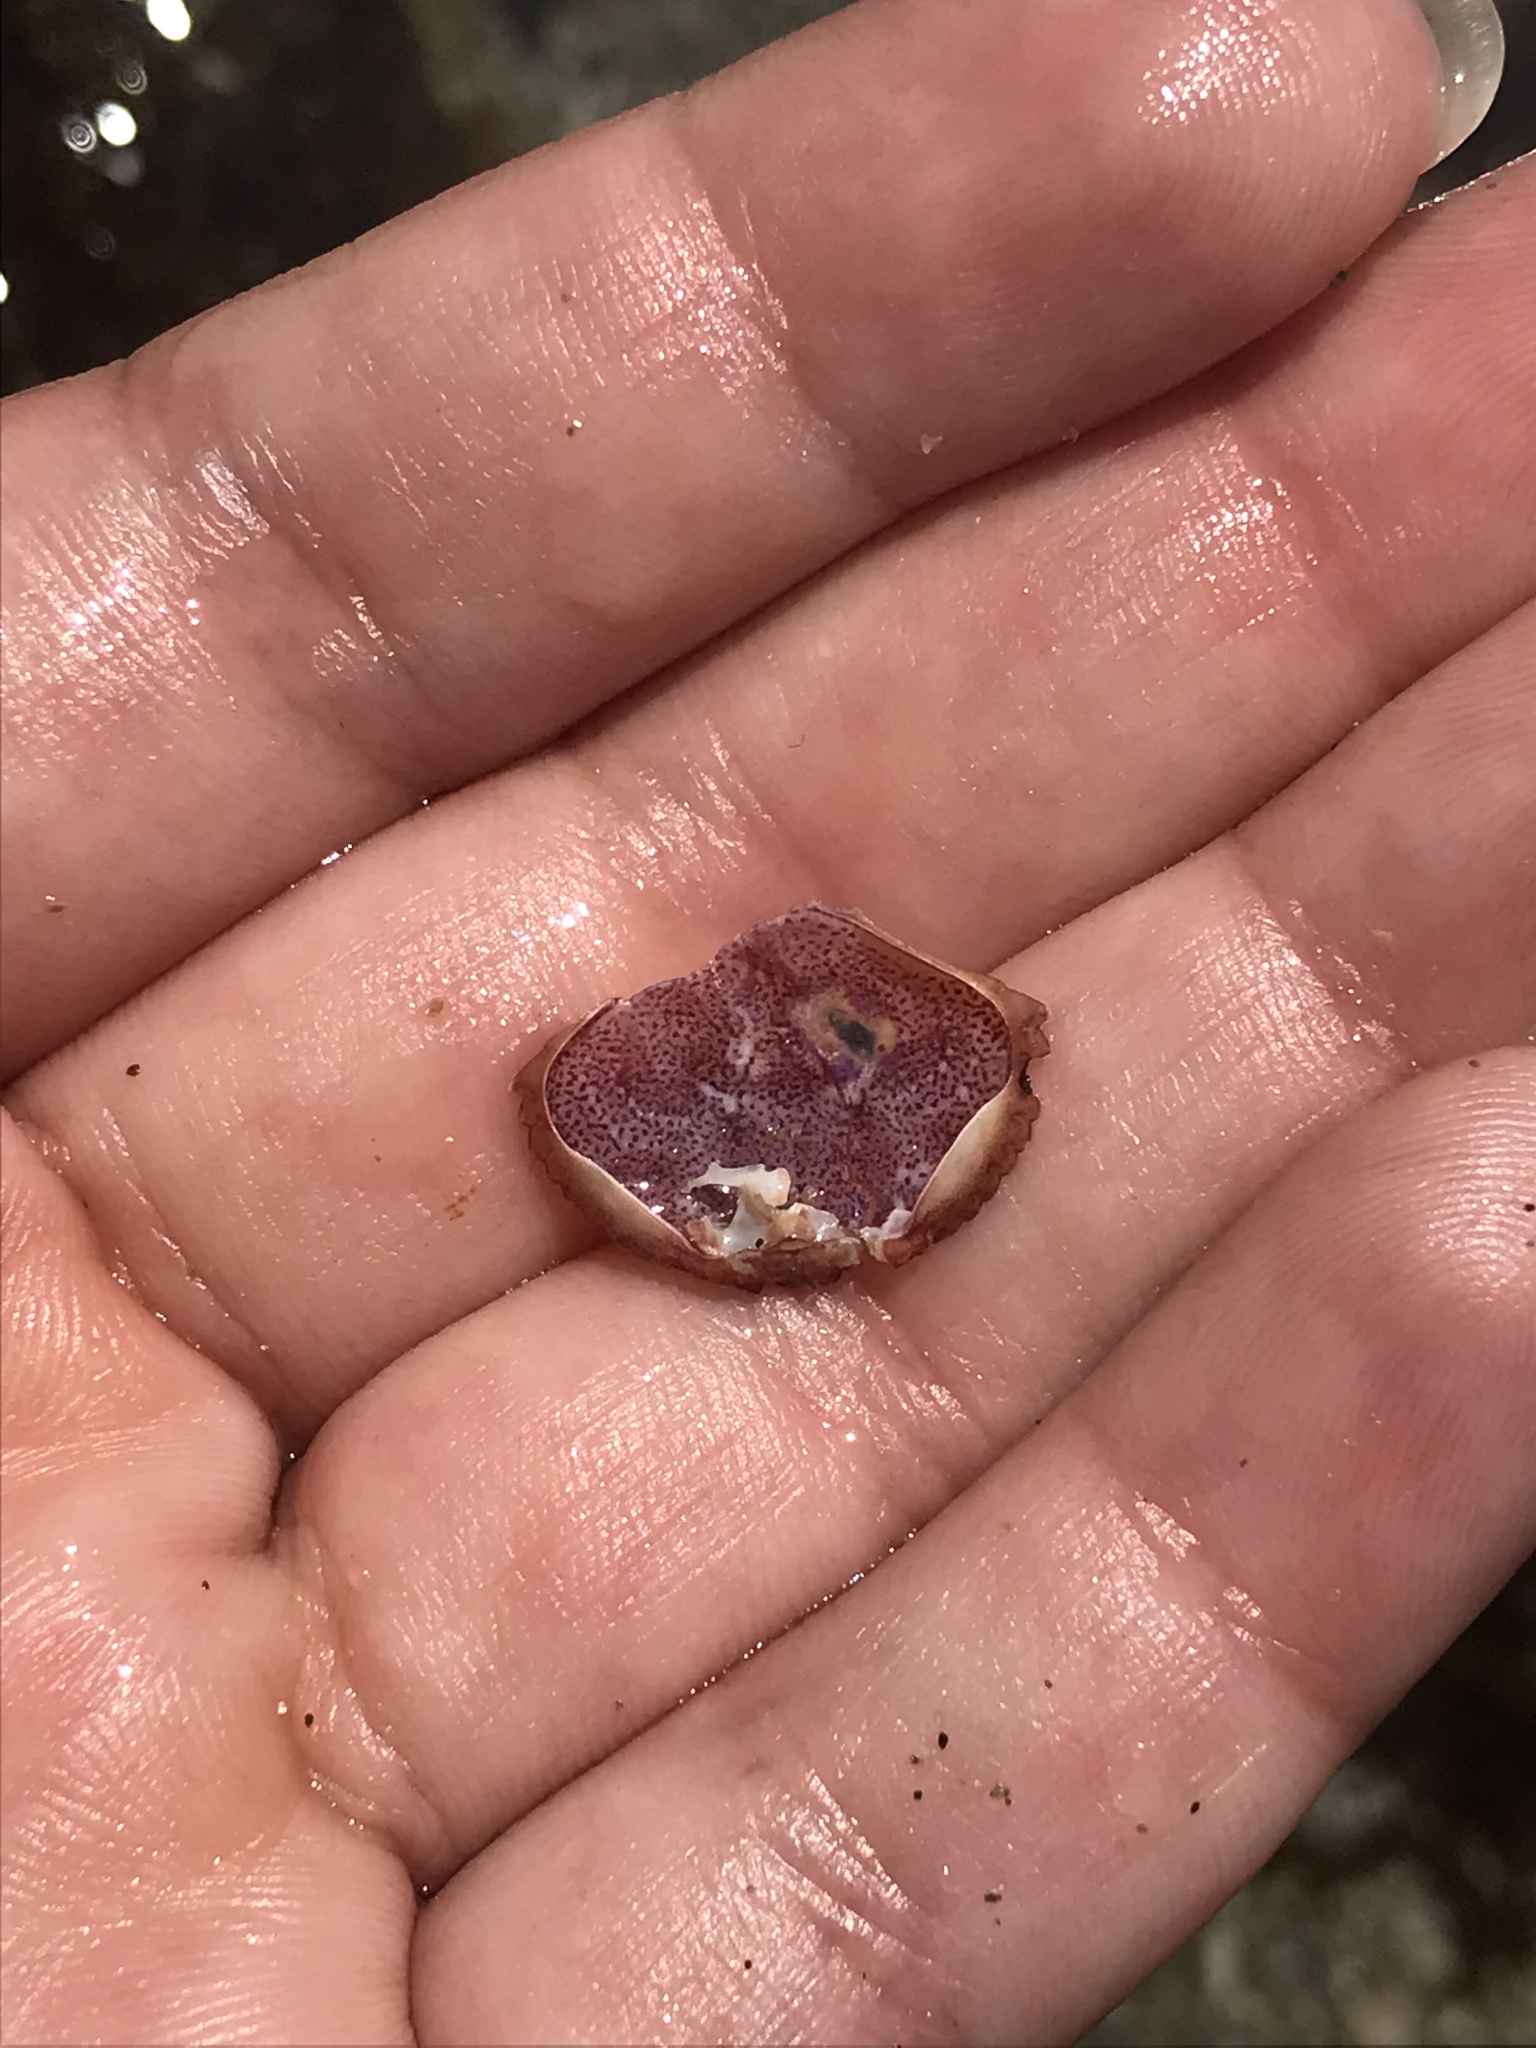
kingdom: Animalia
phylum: Arthropoda
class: Malacostraca
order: Decapoda
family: Cancridae
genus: Cancer
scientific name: Cancer irroratus
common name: Atlantic rock crab
